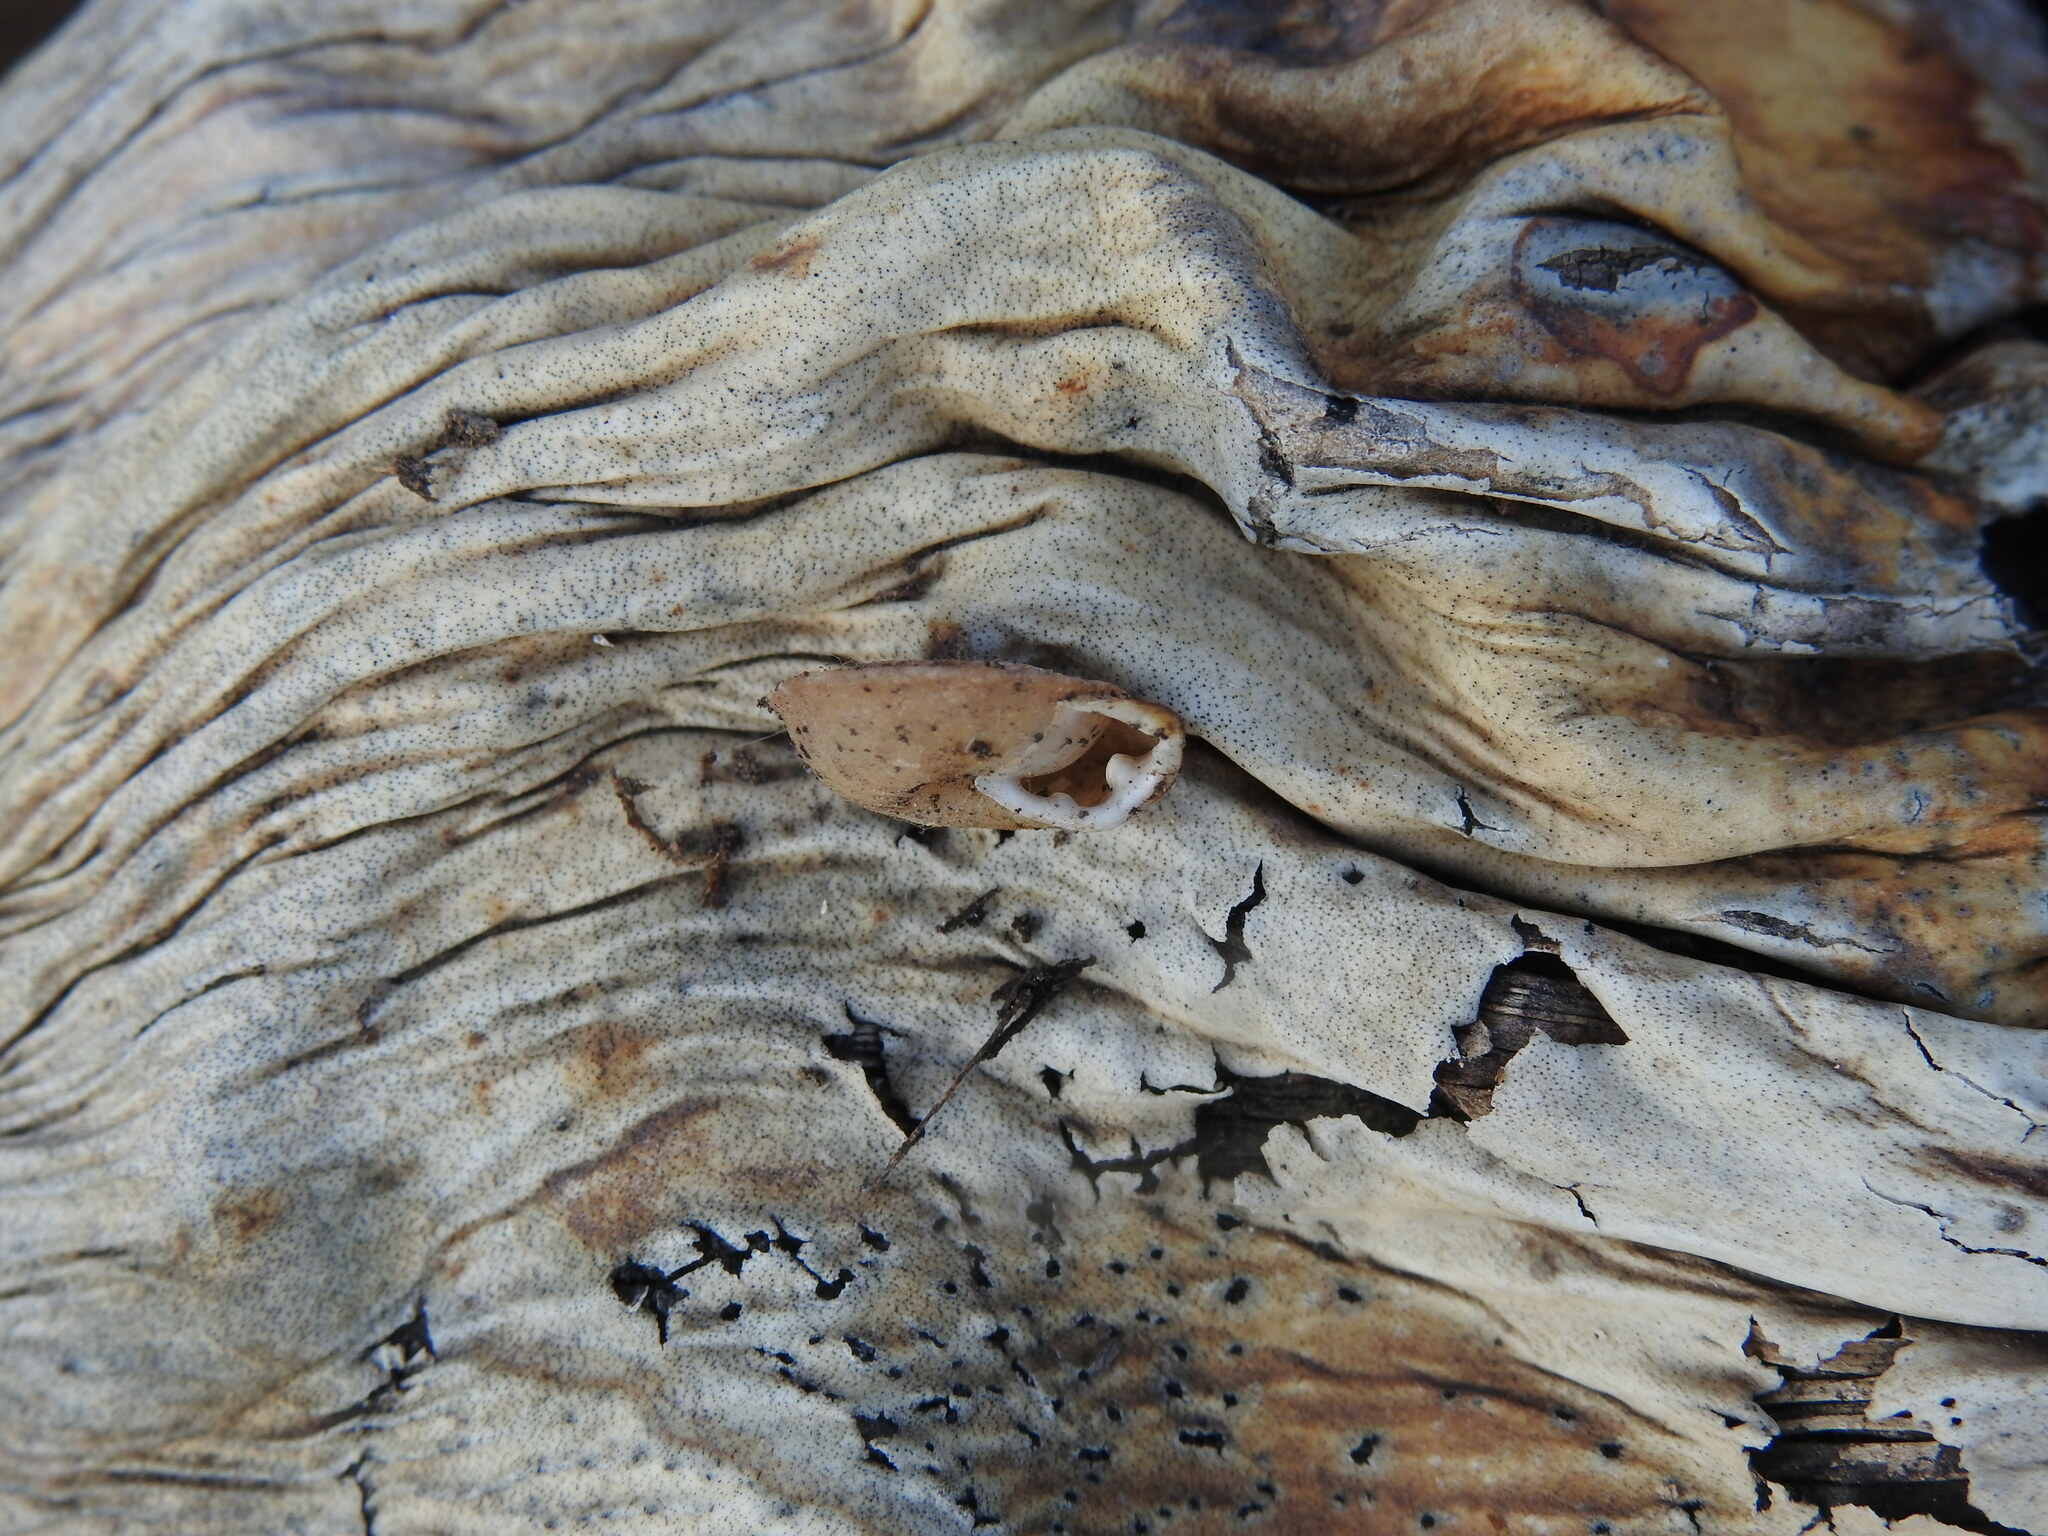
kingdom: Animalia
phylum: Mollusca
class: Gastropoda
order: Stylommatophora
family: Trissexodontidae
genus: Gittenbergeria
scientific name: Gittenbergeria turriplana
